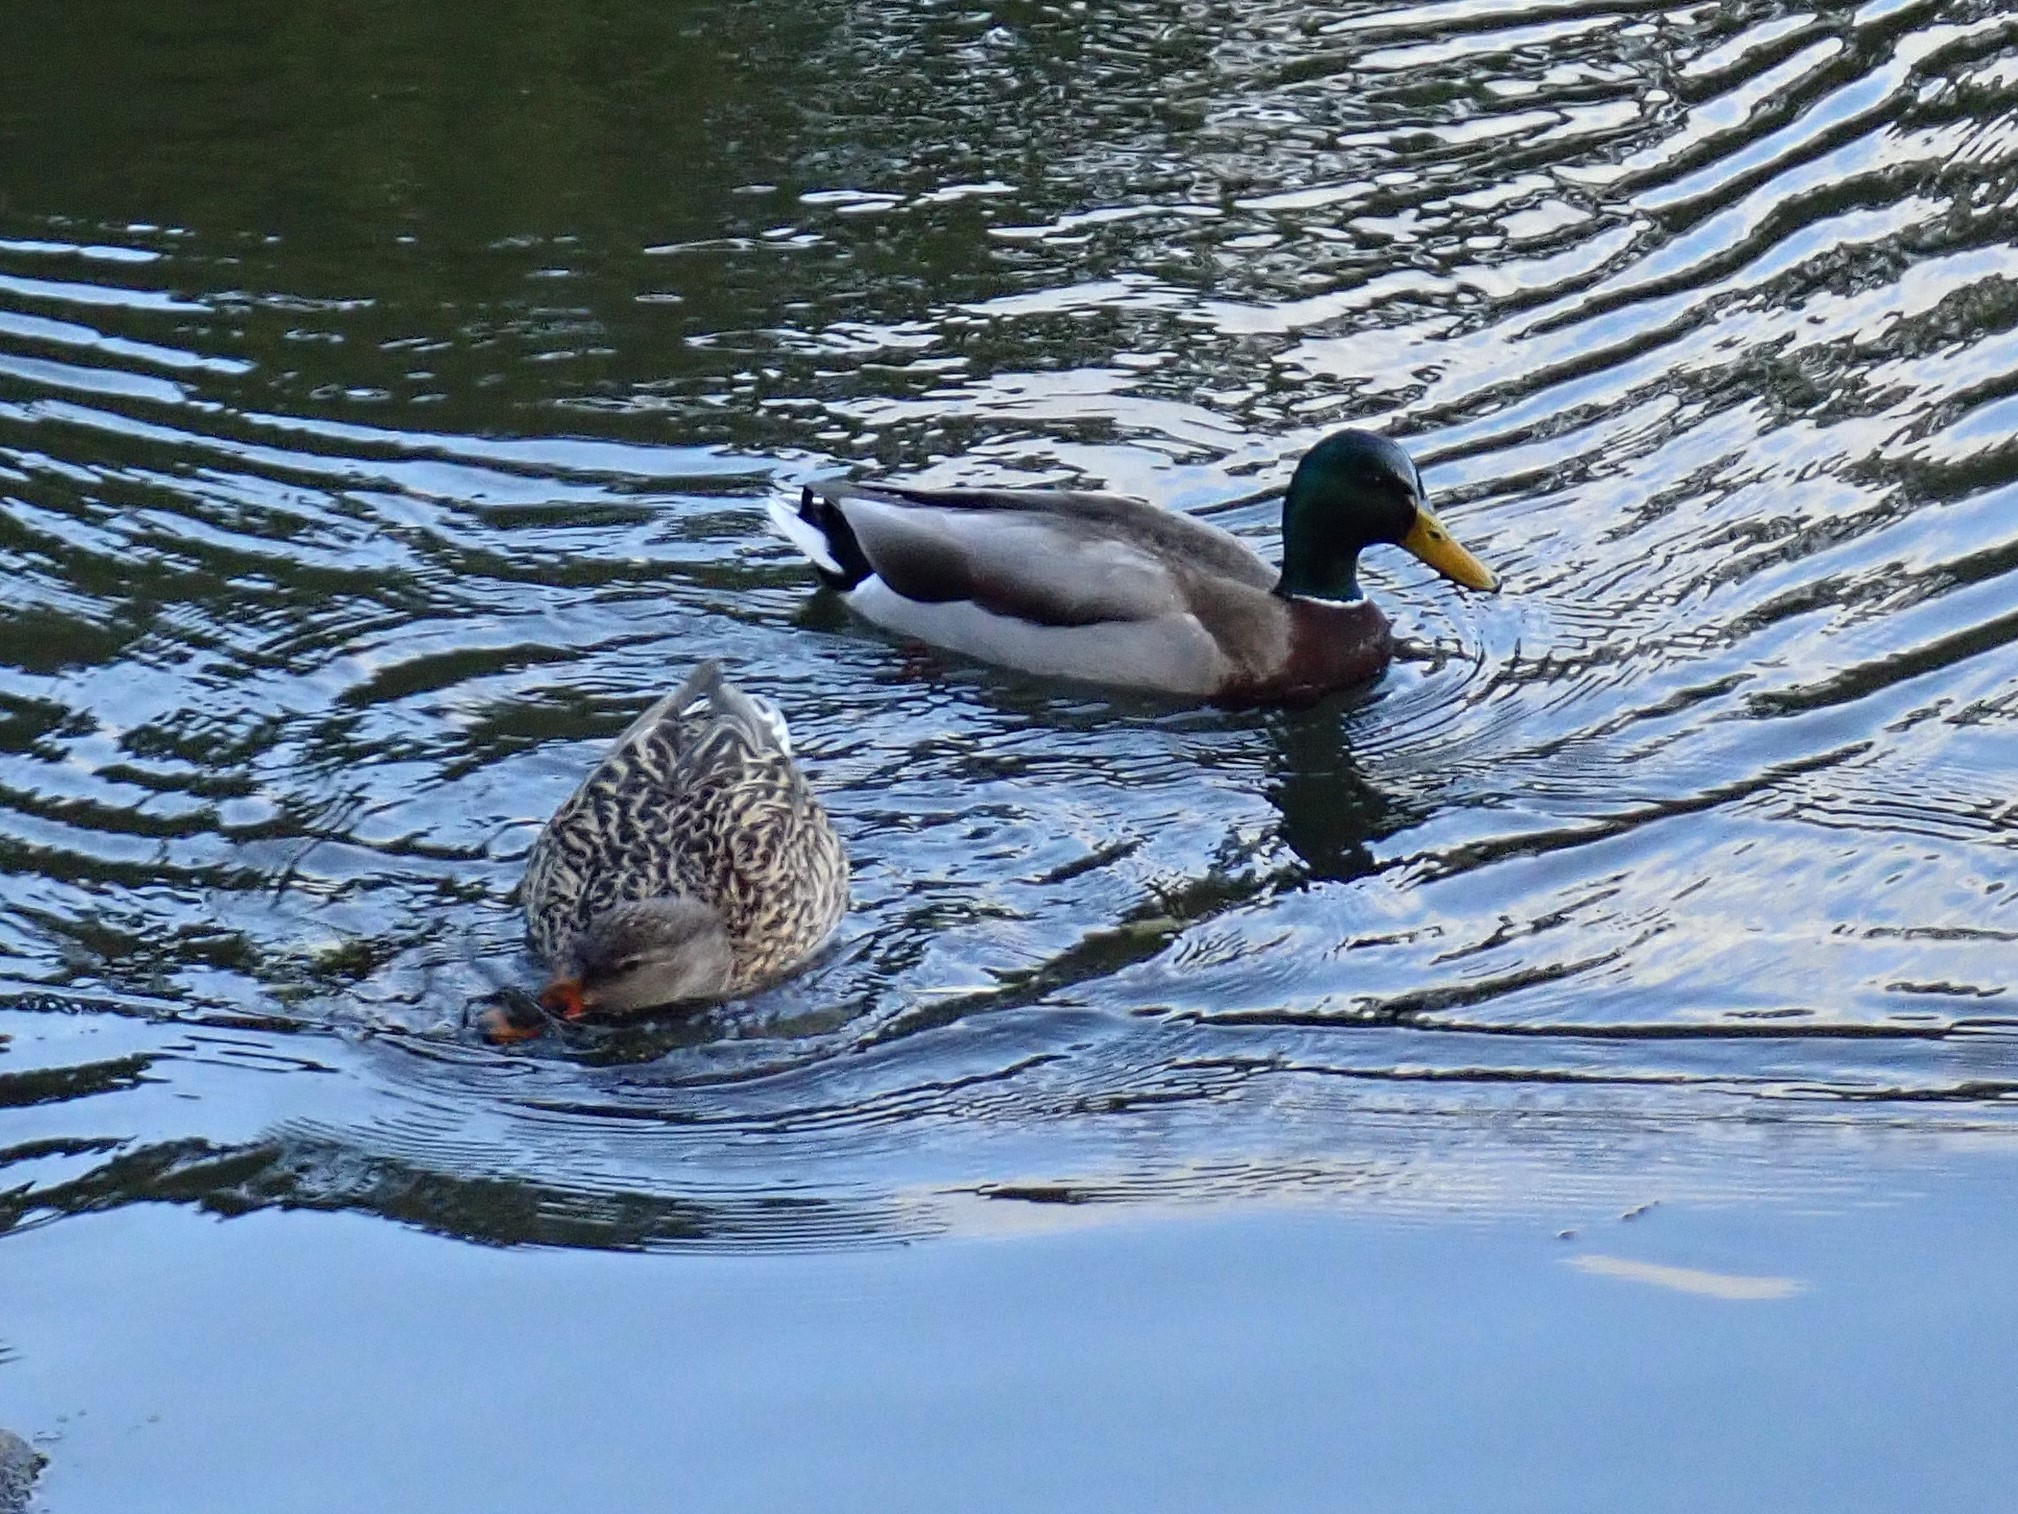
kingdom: Animalia
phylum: Chordata
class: Aves
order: Anseriformes
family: Anatidae
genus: Anas
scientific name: Anas platyrhynchos
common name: Mallard
